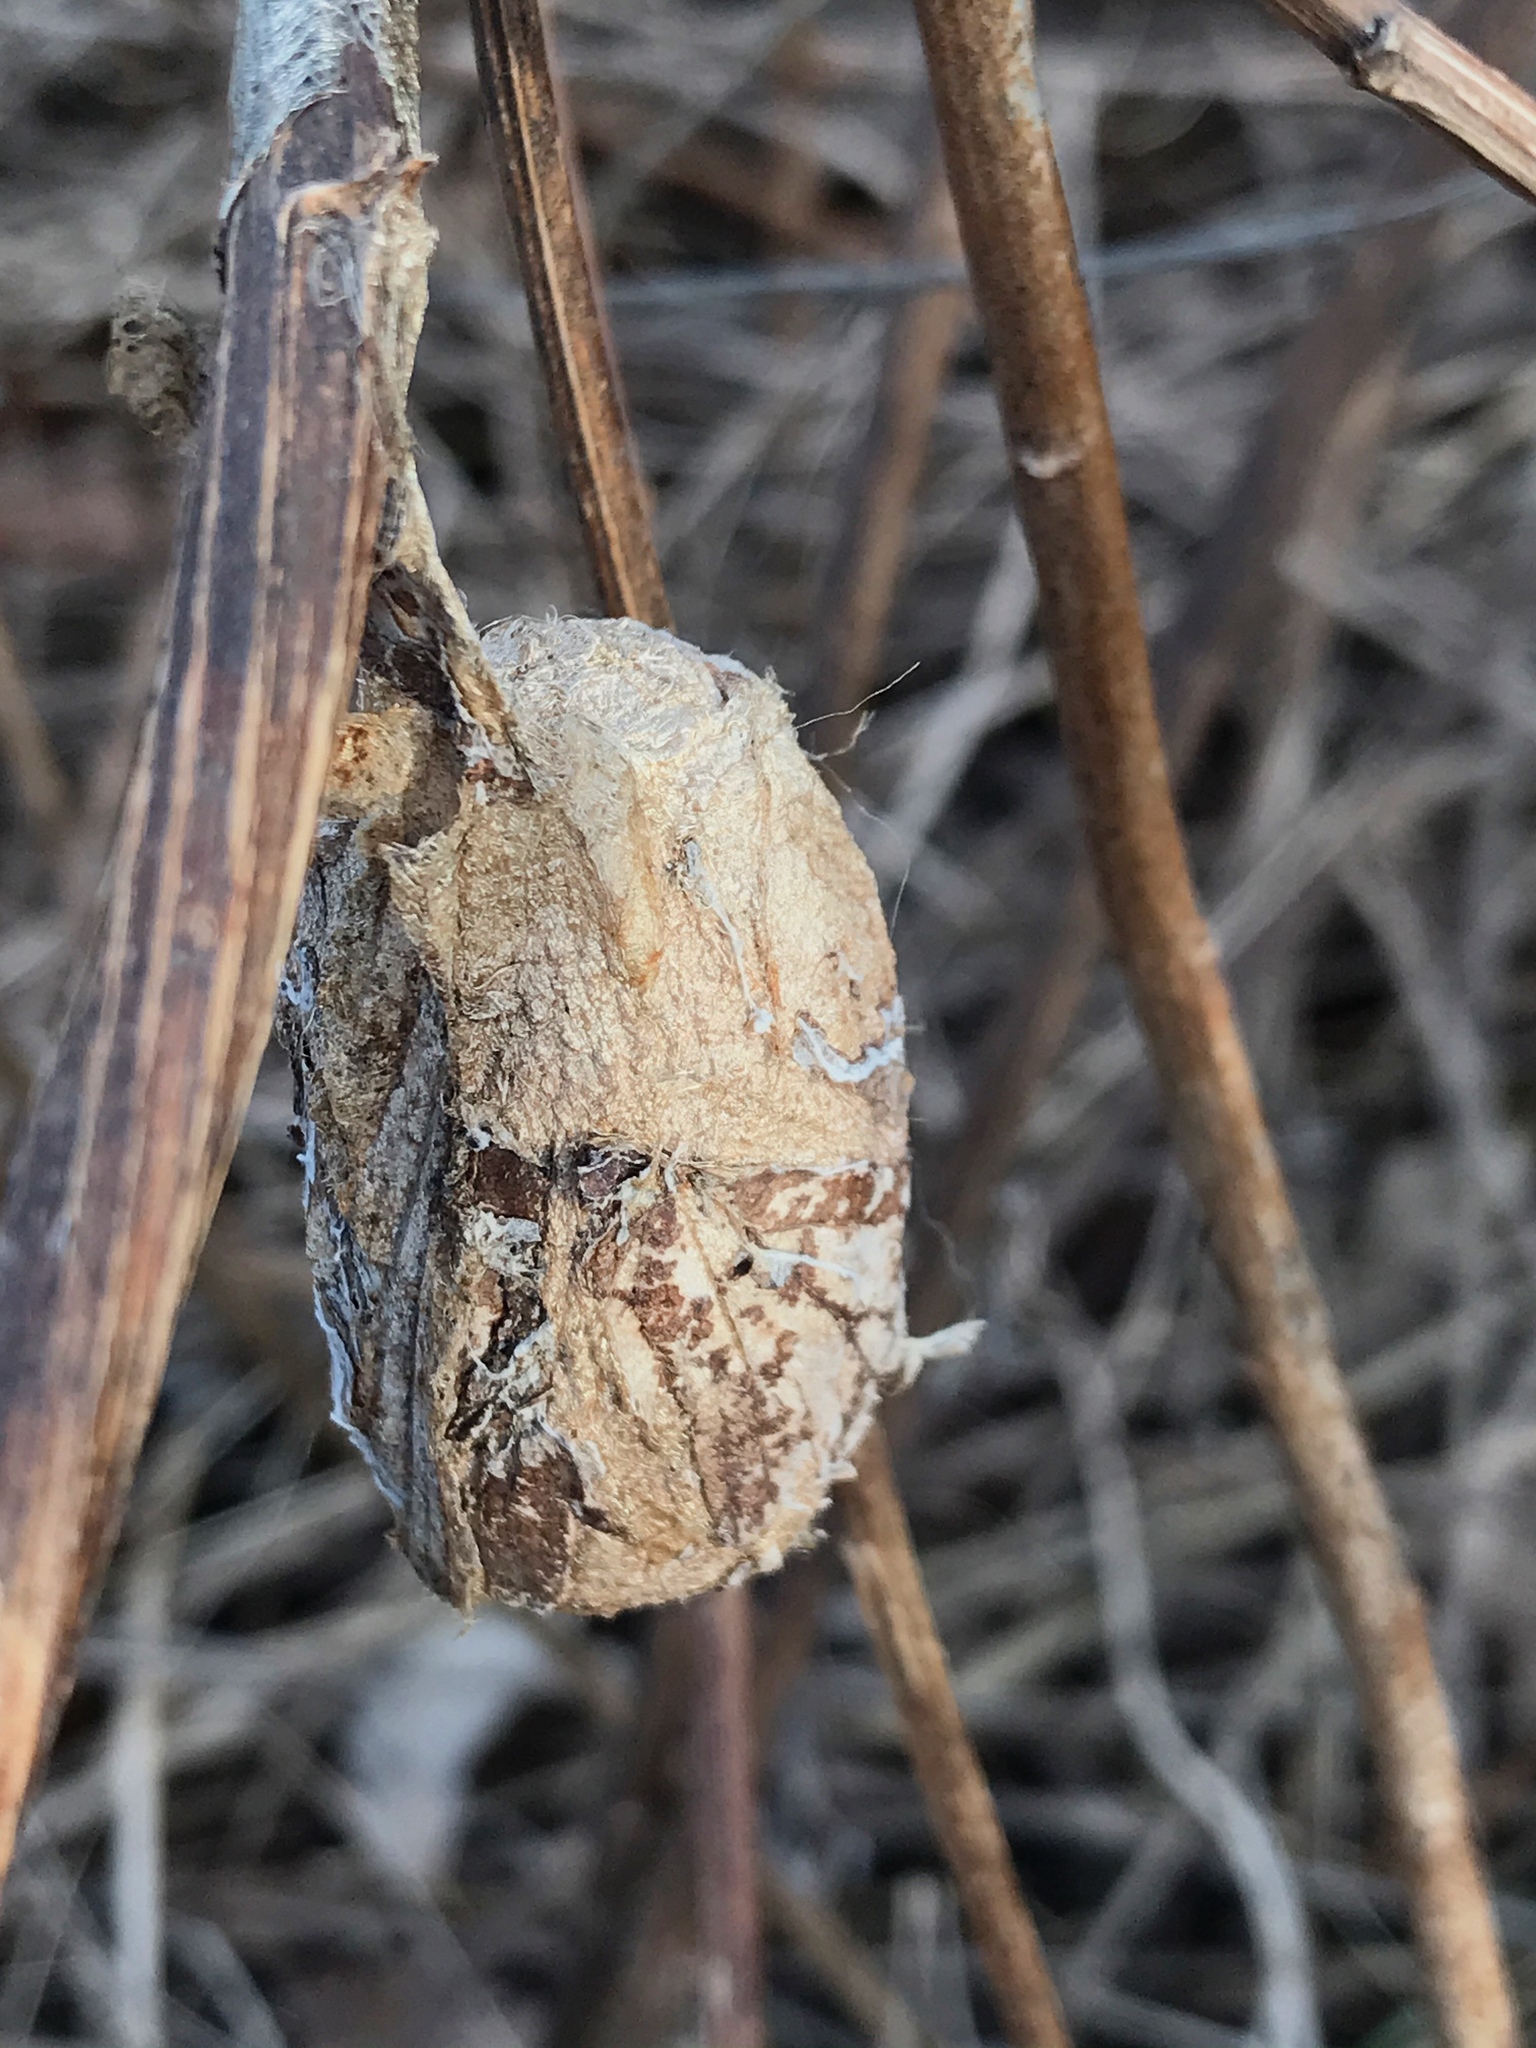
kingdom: Animalia
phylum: Arthropoda
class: Insecta
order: Lepidoptera
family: Saturniidae
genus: Antheraea
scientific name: Antheraea polyphemus
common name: Polyphemus moth
